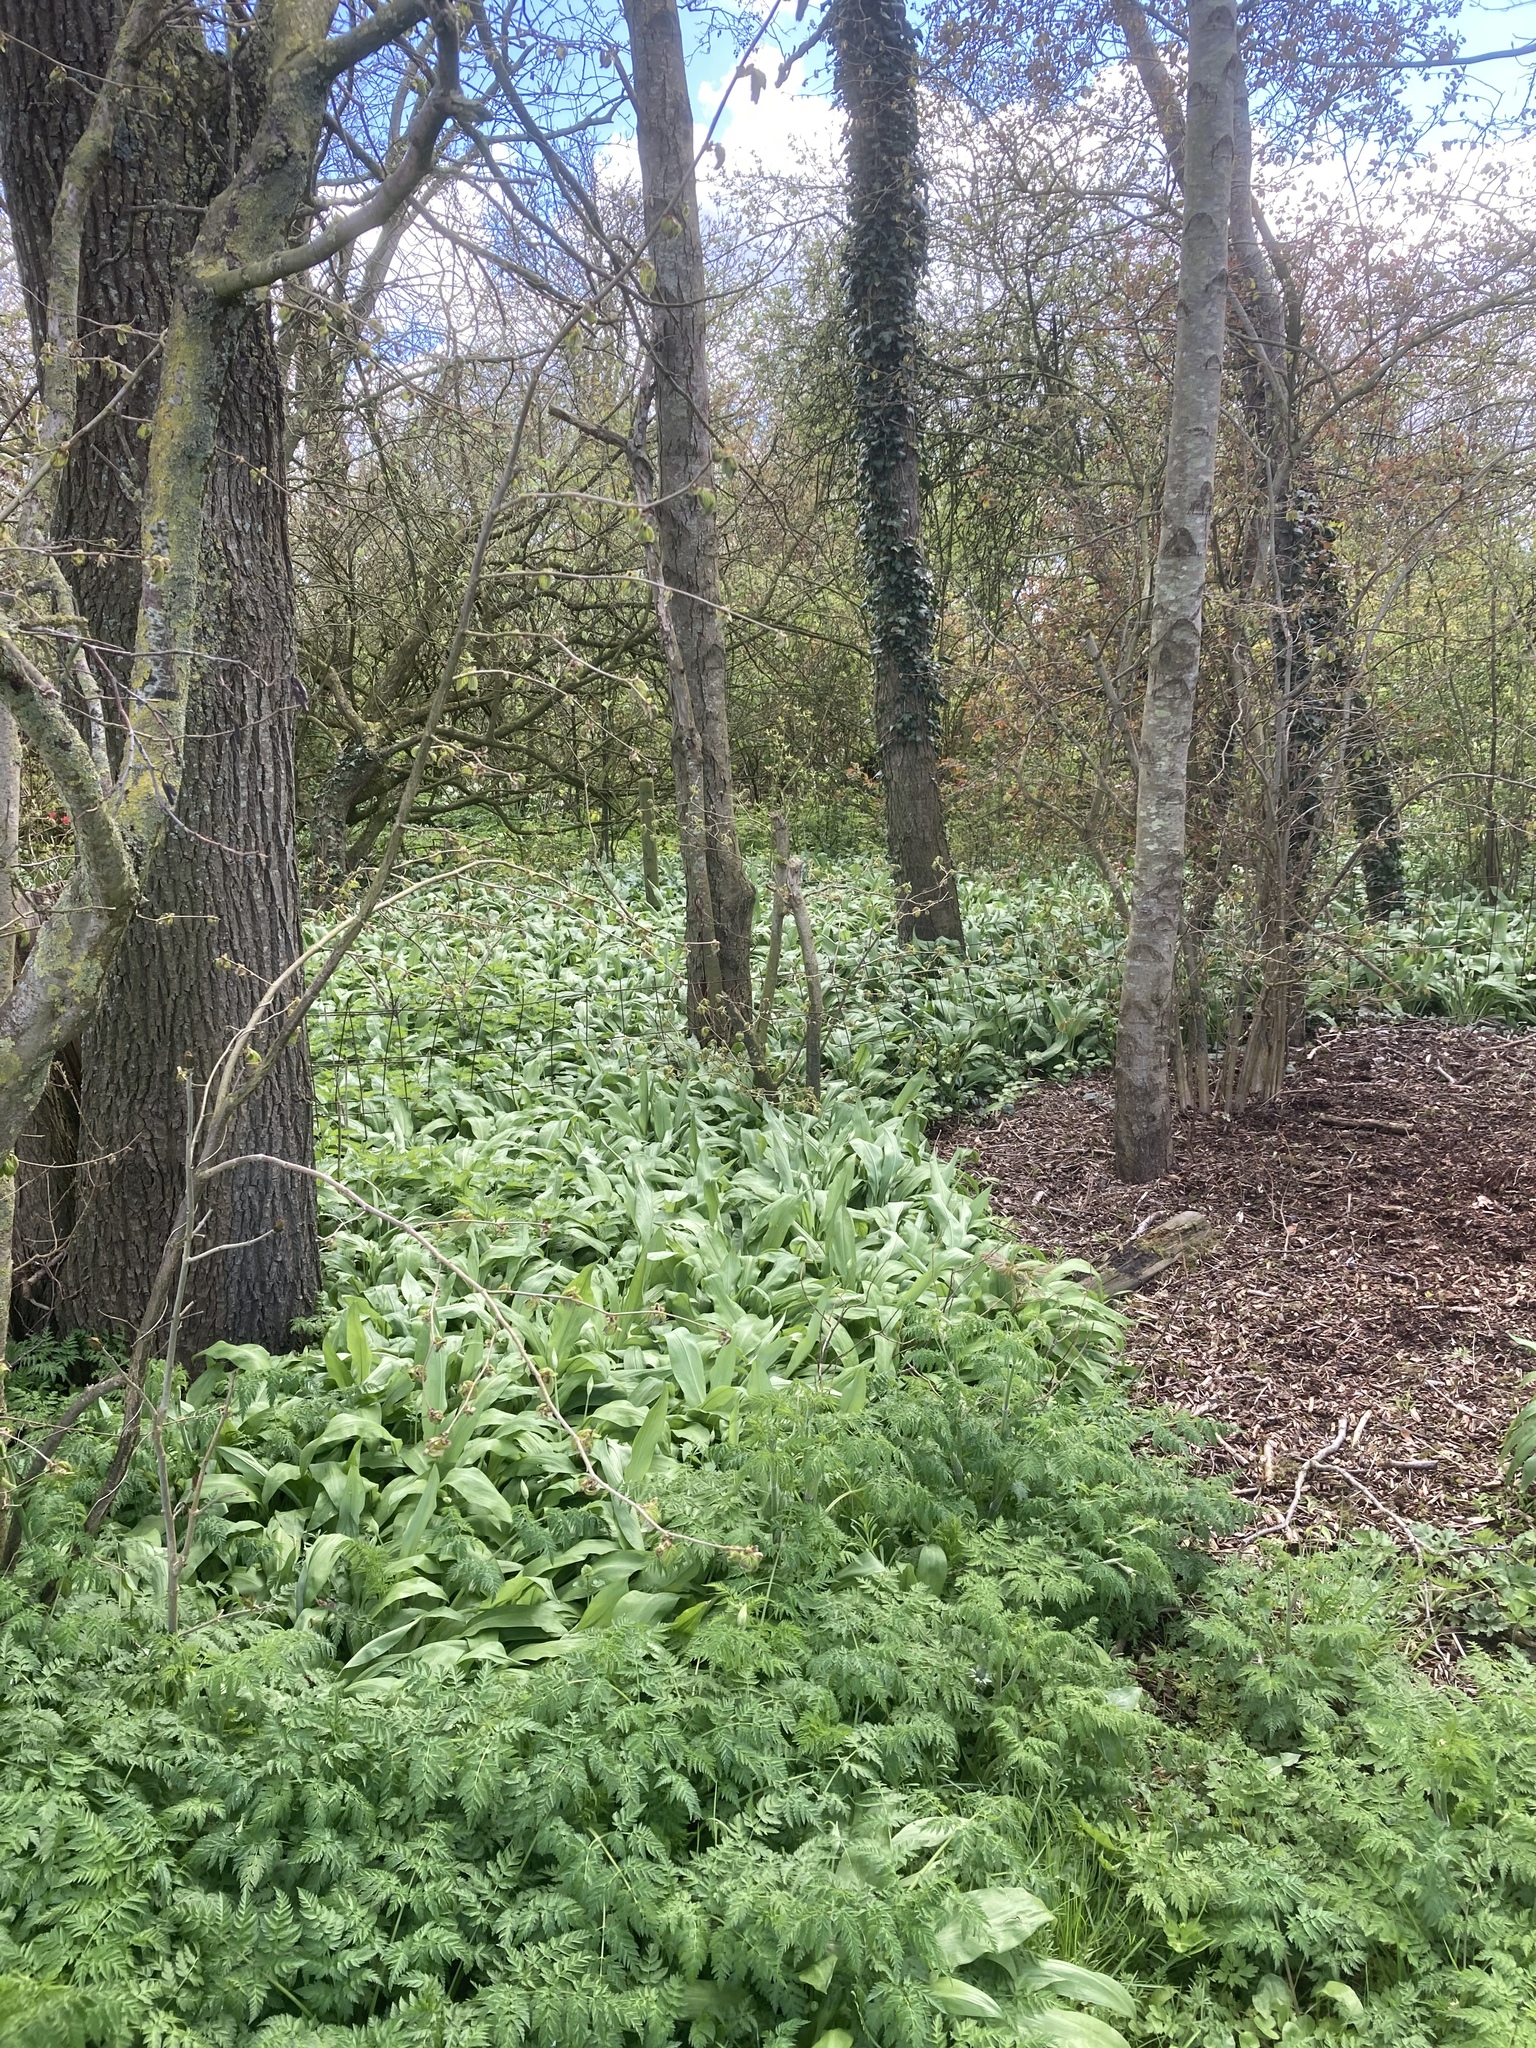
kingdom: Plantae
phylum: Tracheophyta
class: Liliopsida
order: Asparagales
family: Amaryllidaceae
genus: Allium
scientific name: Allium ursinum
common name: Ramsons
